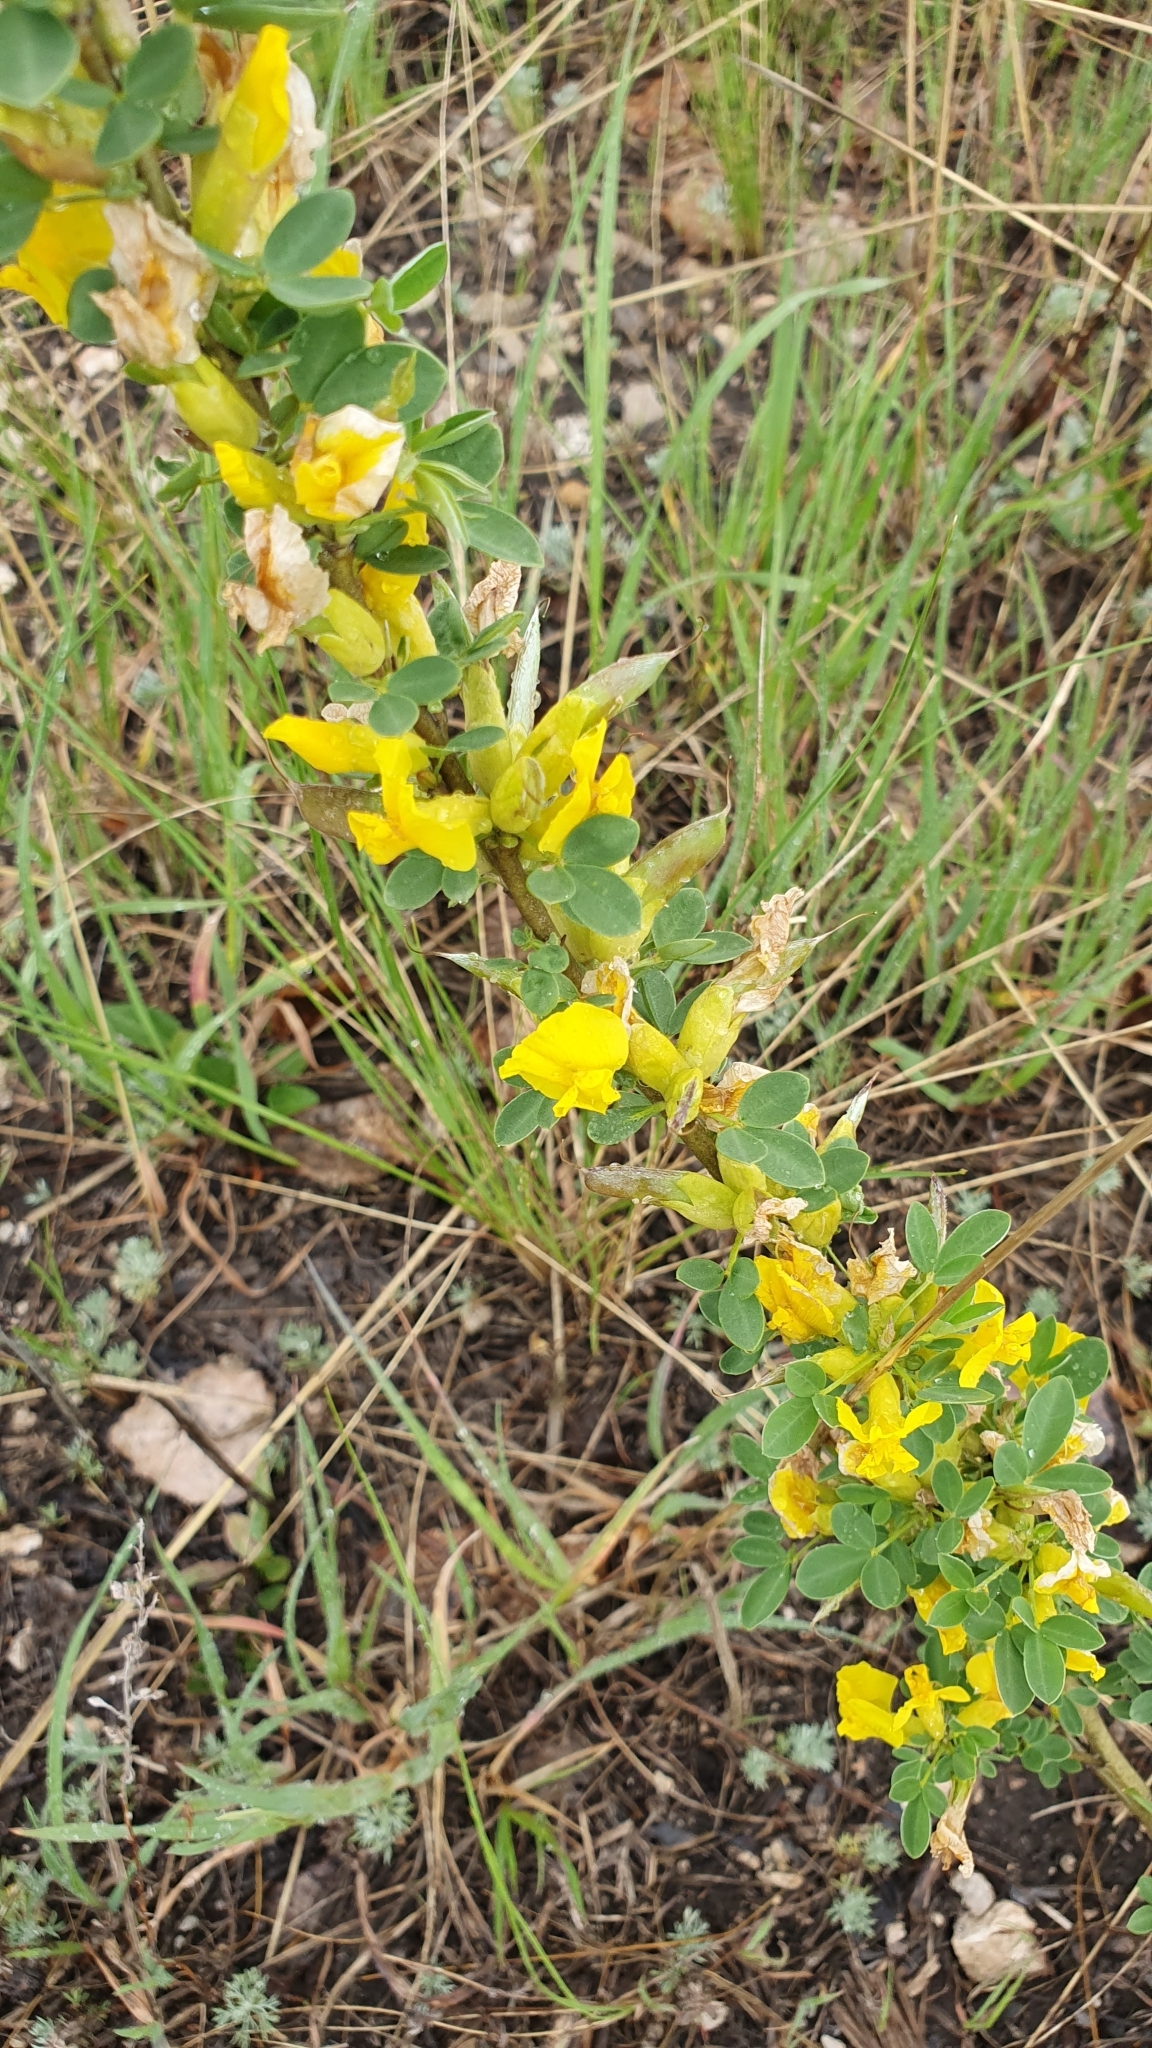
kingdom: Plantae
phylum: Tracheophyta
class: Magnoliopsida
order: Fabales
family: Fabaceae
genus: Chamaecytisus
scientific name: Chamaecytisus ruthenicus
